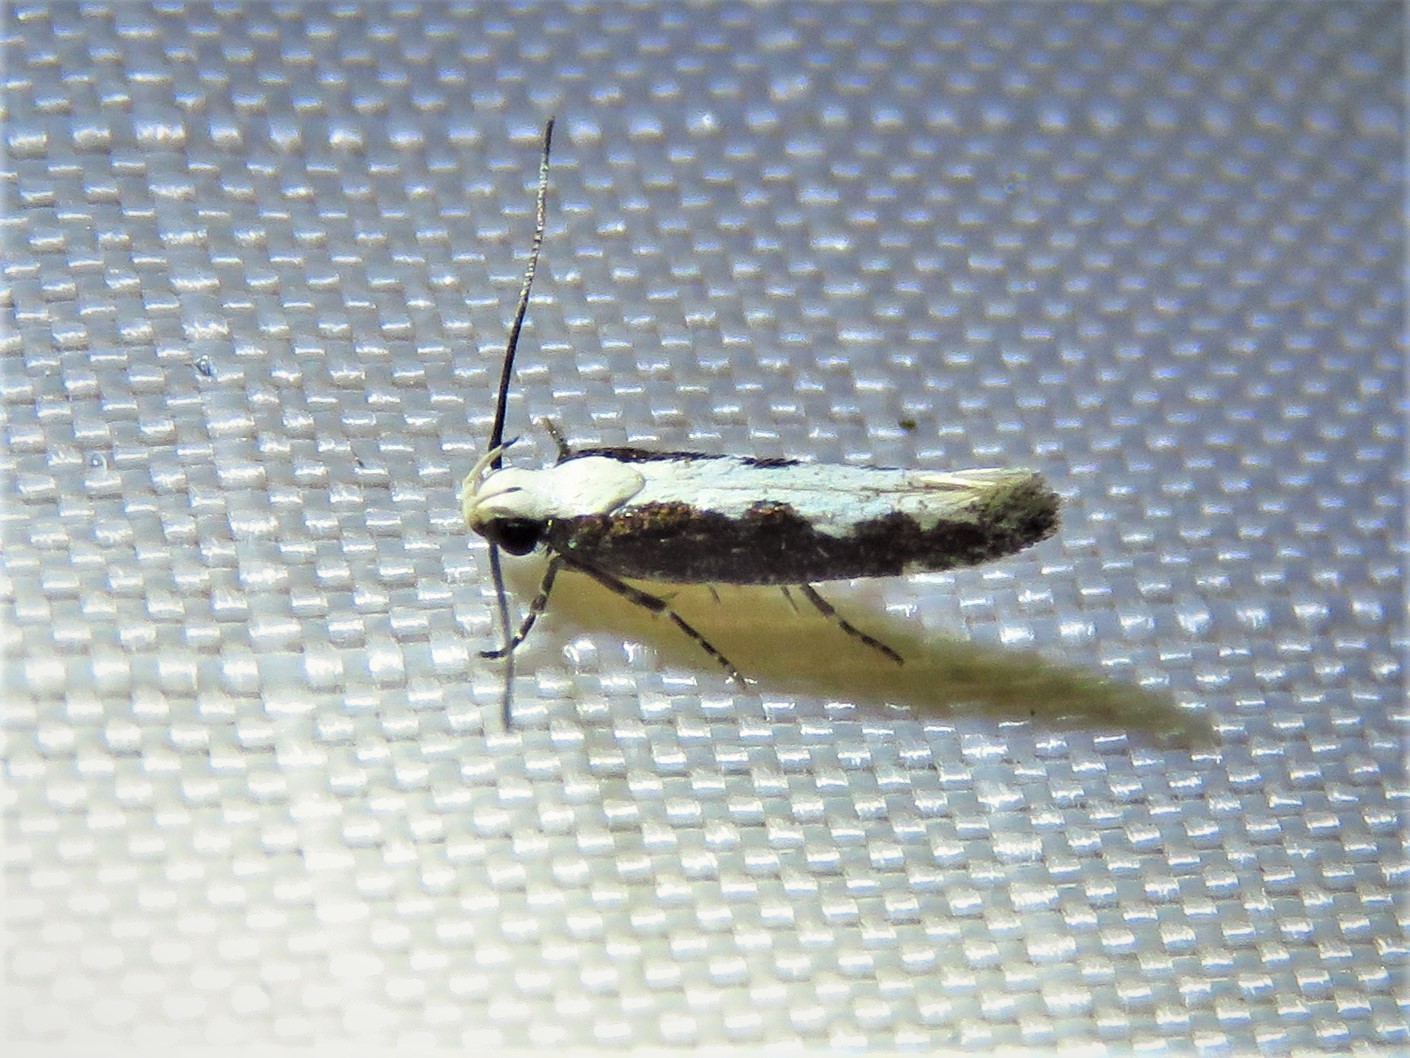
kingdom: Animalia
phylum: Arthropoda
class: Insecta
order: Lepidoptera
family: Gelechiidae
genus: Agnippe
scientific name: Agnippe prunifoliella
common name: Skunk twirler
